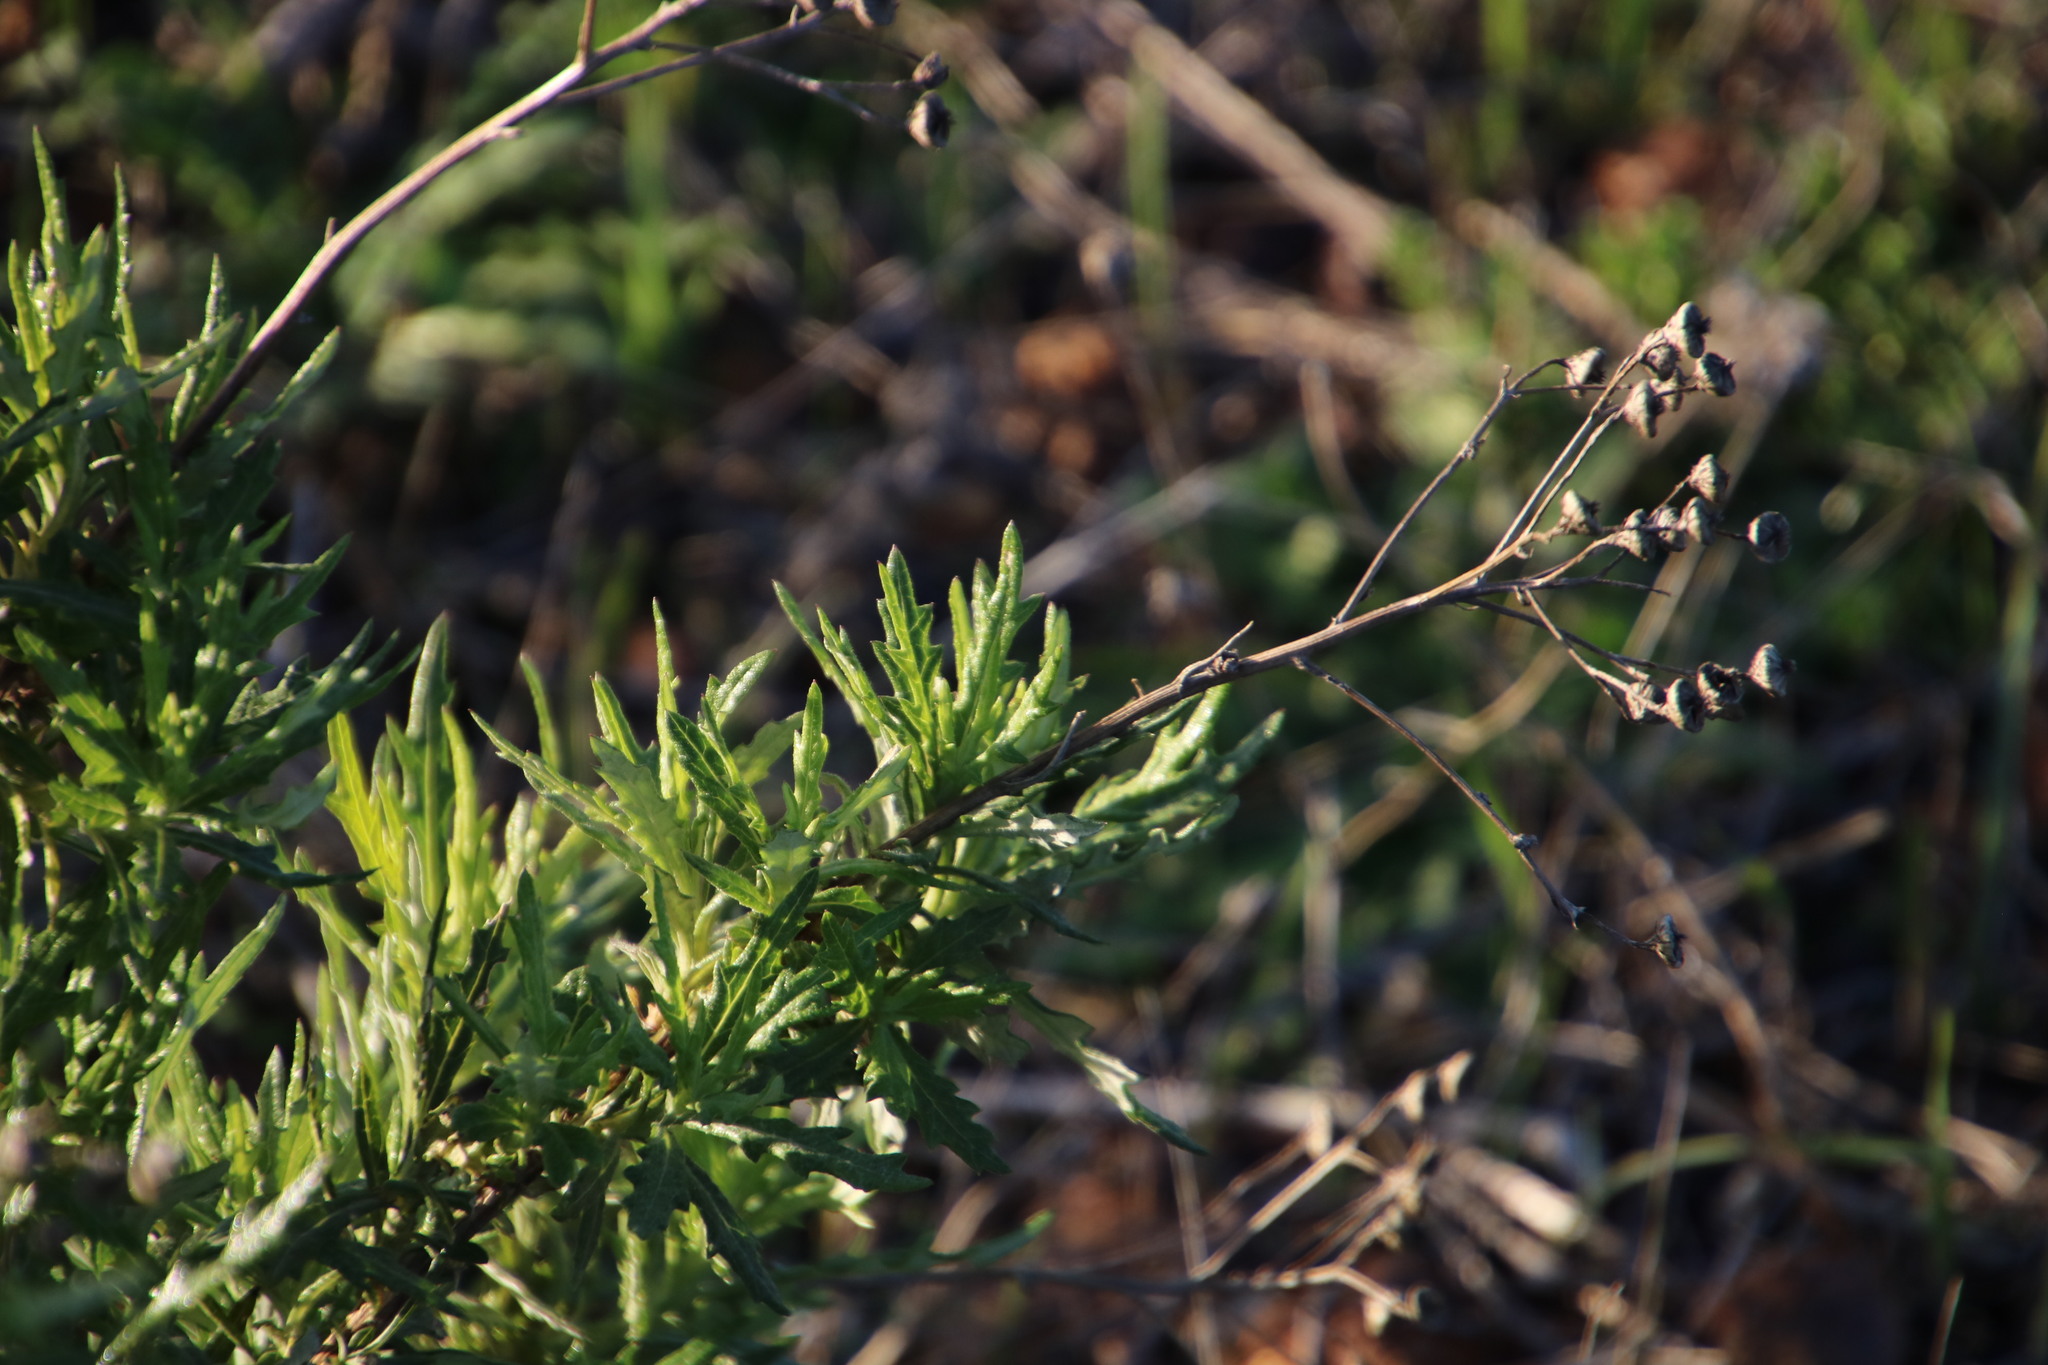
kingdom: Plantae
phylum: Tracheophyta
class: Magnoliopsida
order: Asterales
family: Asteraceae
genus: Senecio
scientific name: Senecio pterophorus
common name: Shoddy ragwort
